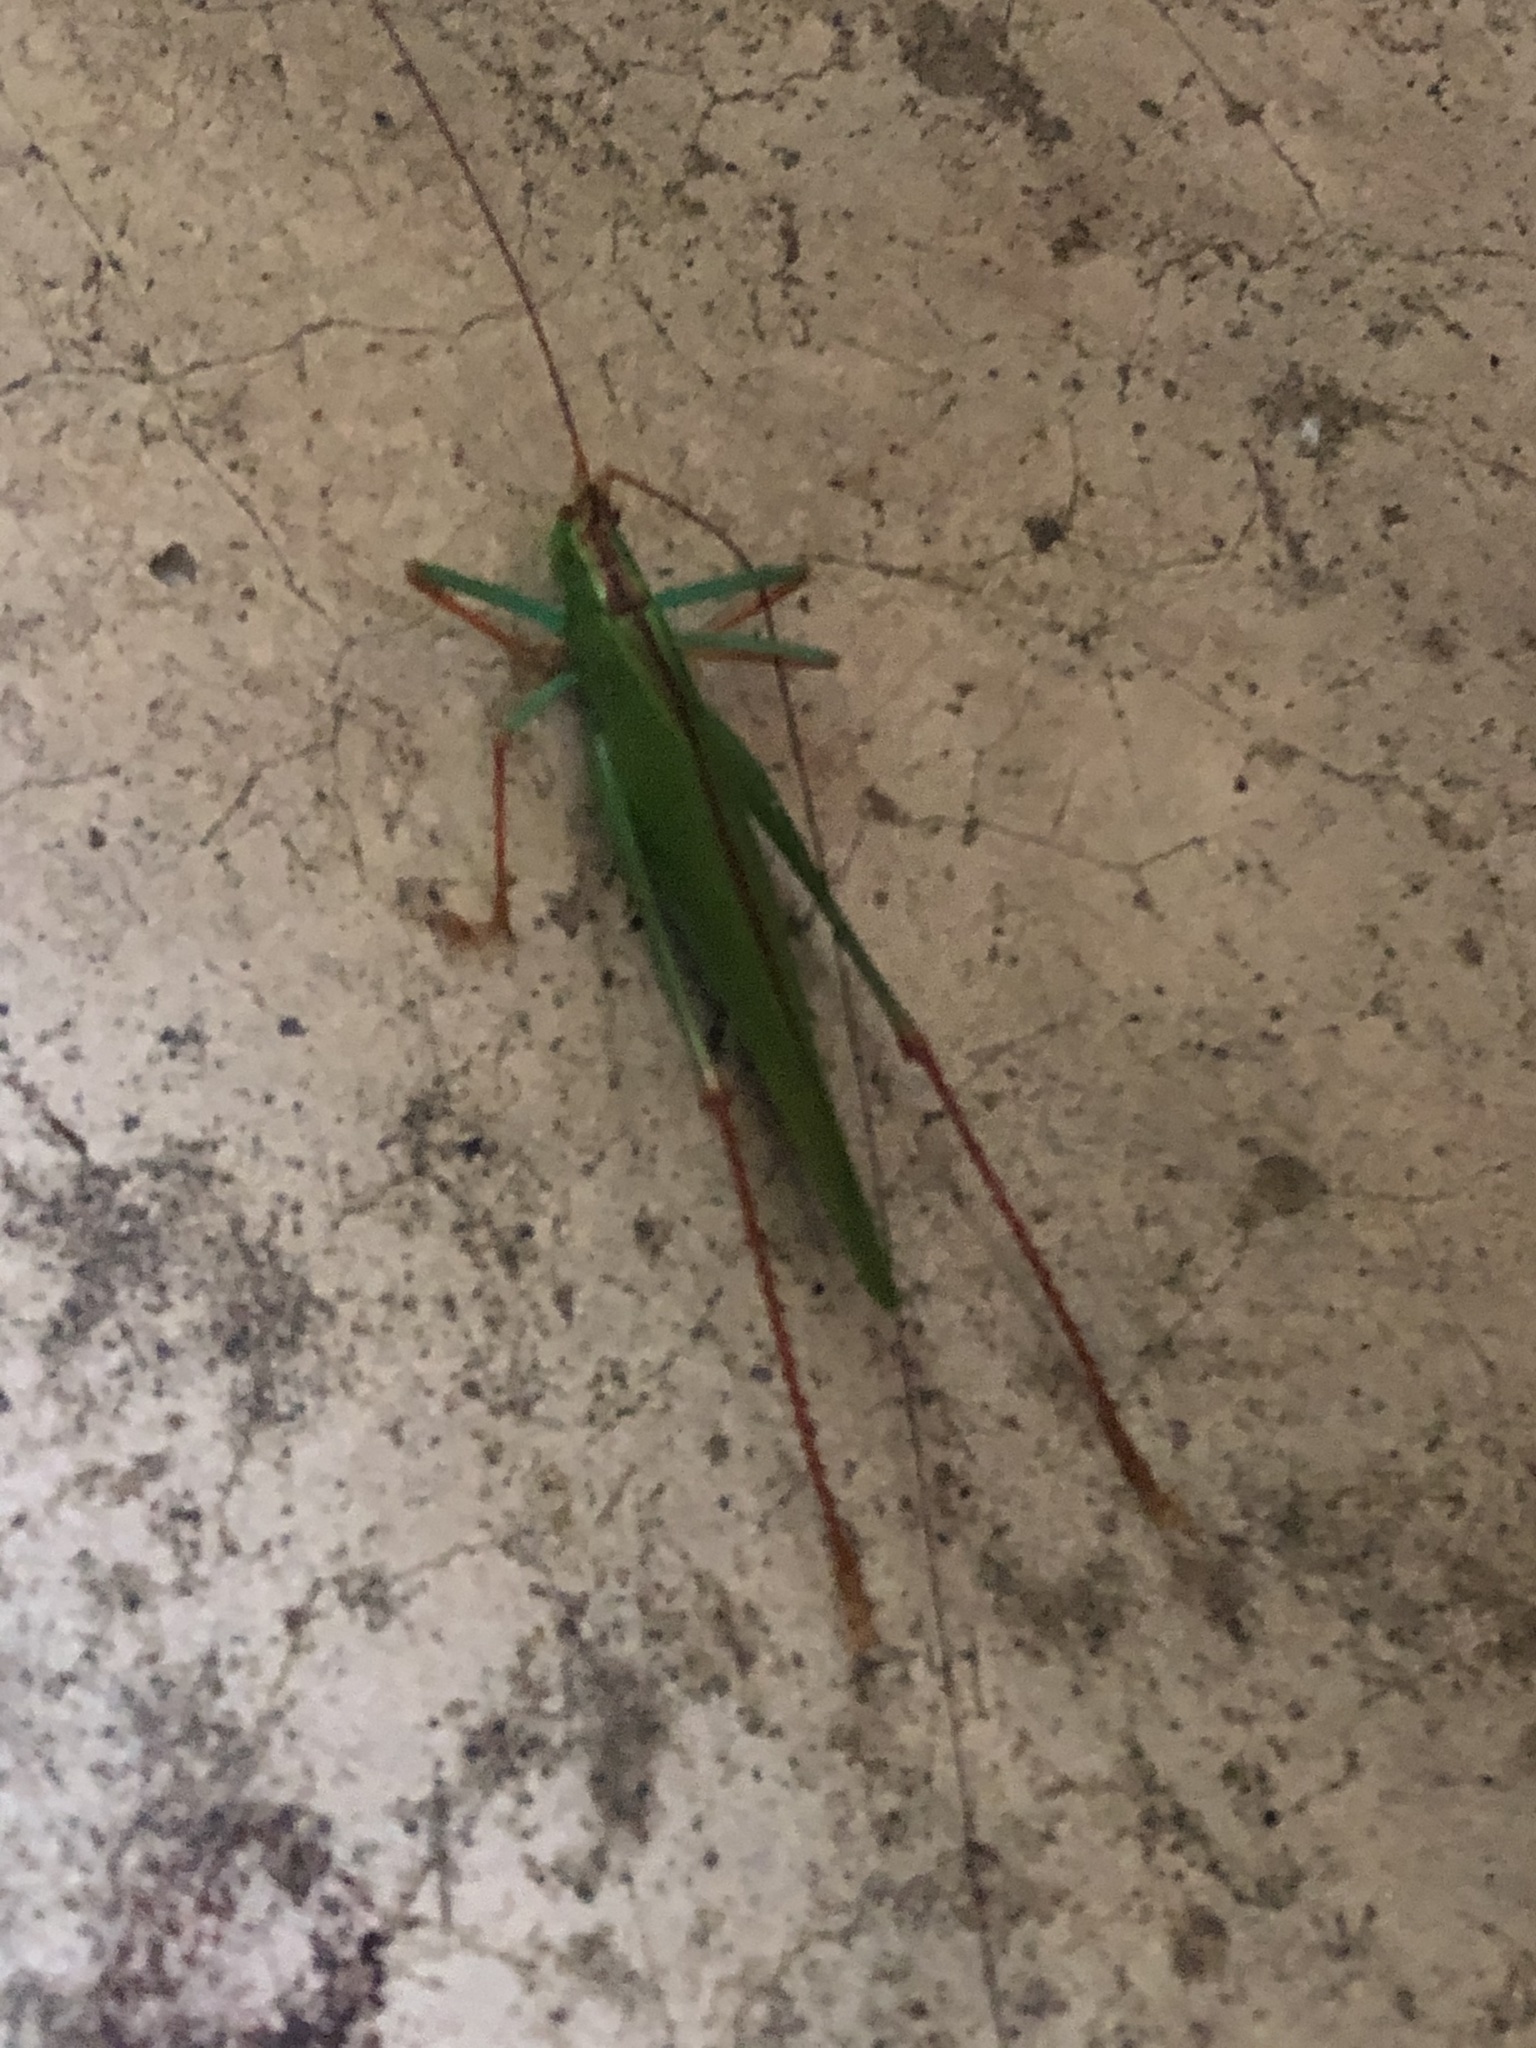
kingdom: Animalia
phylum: Arthropoda
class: Insecta
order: Orthoptera
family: Tettigoniidae
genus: Jimenezia
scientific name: Jimenezia elegans
